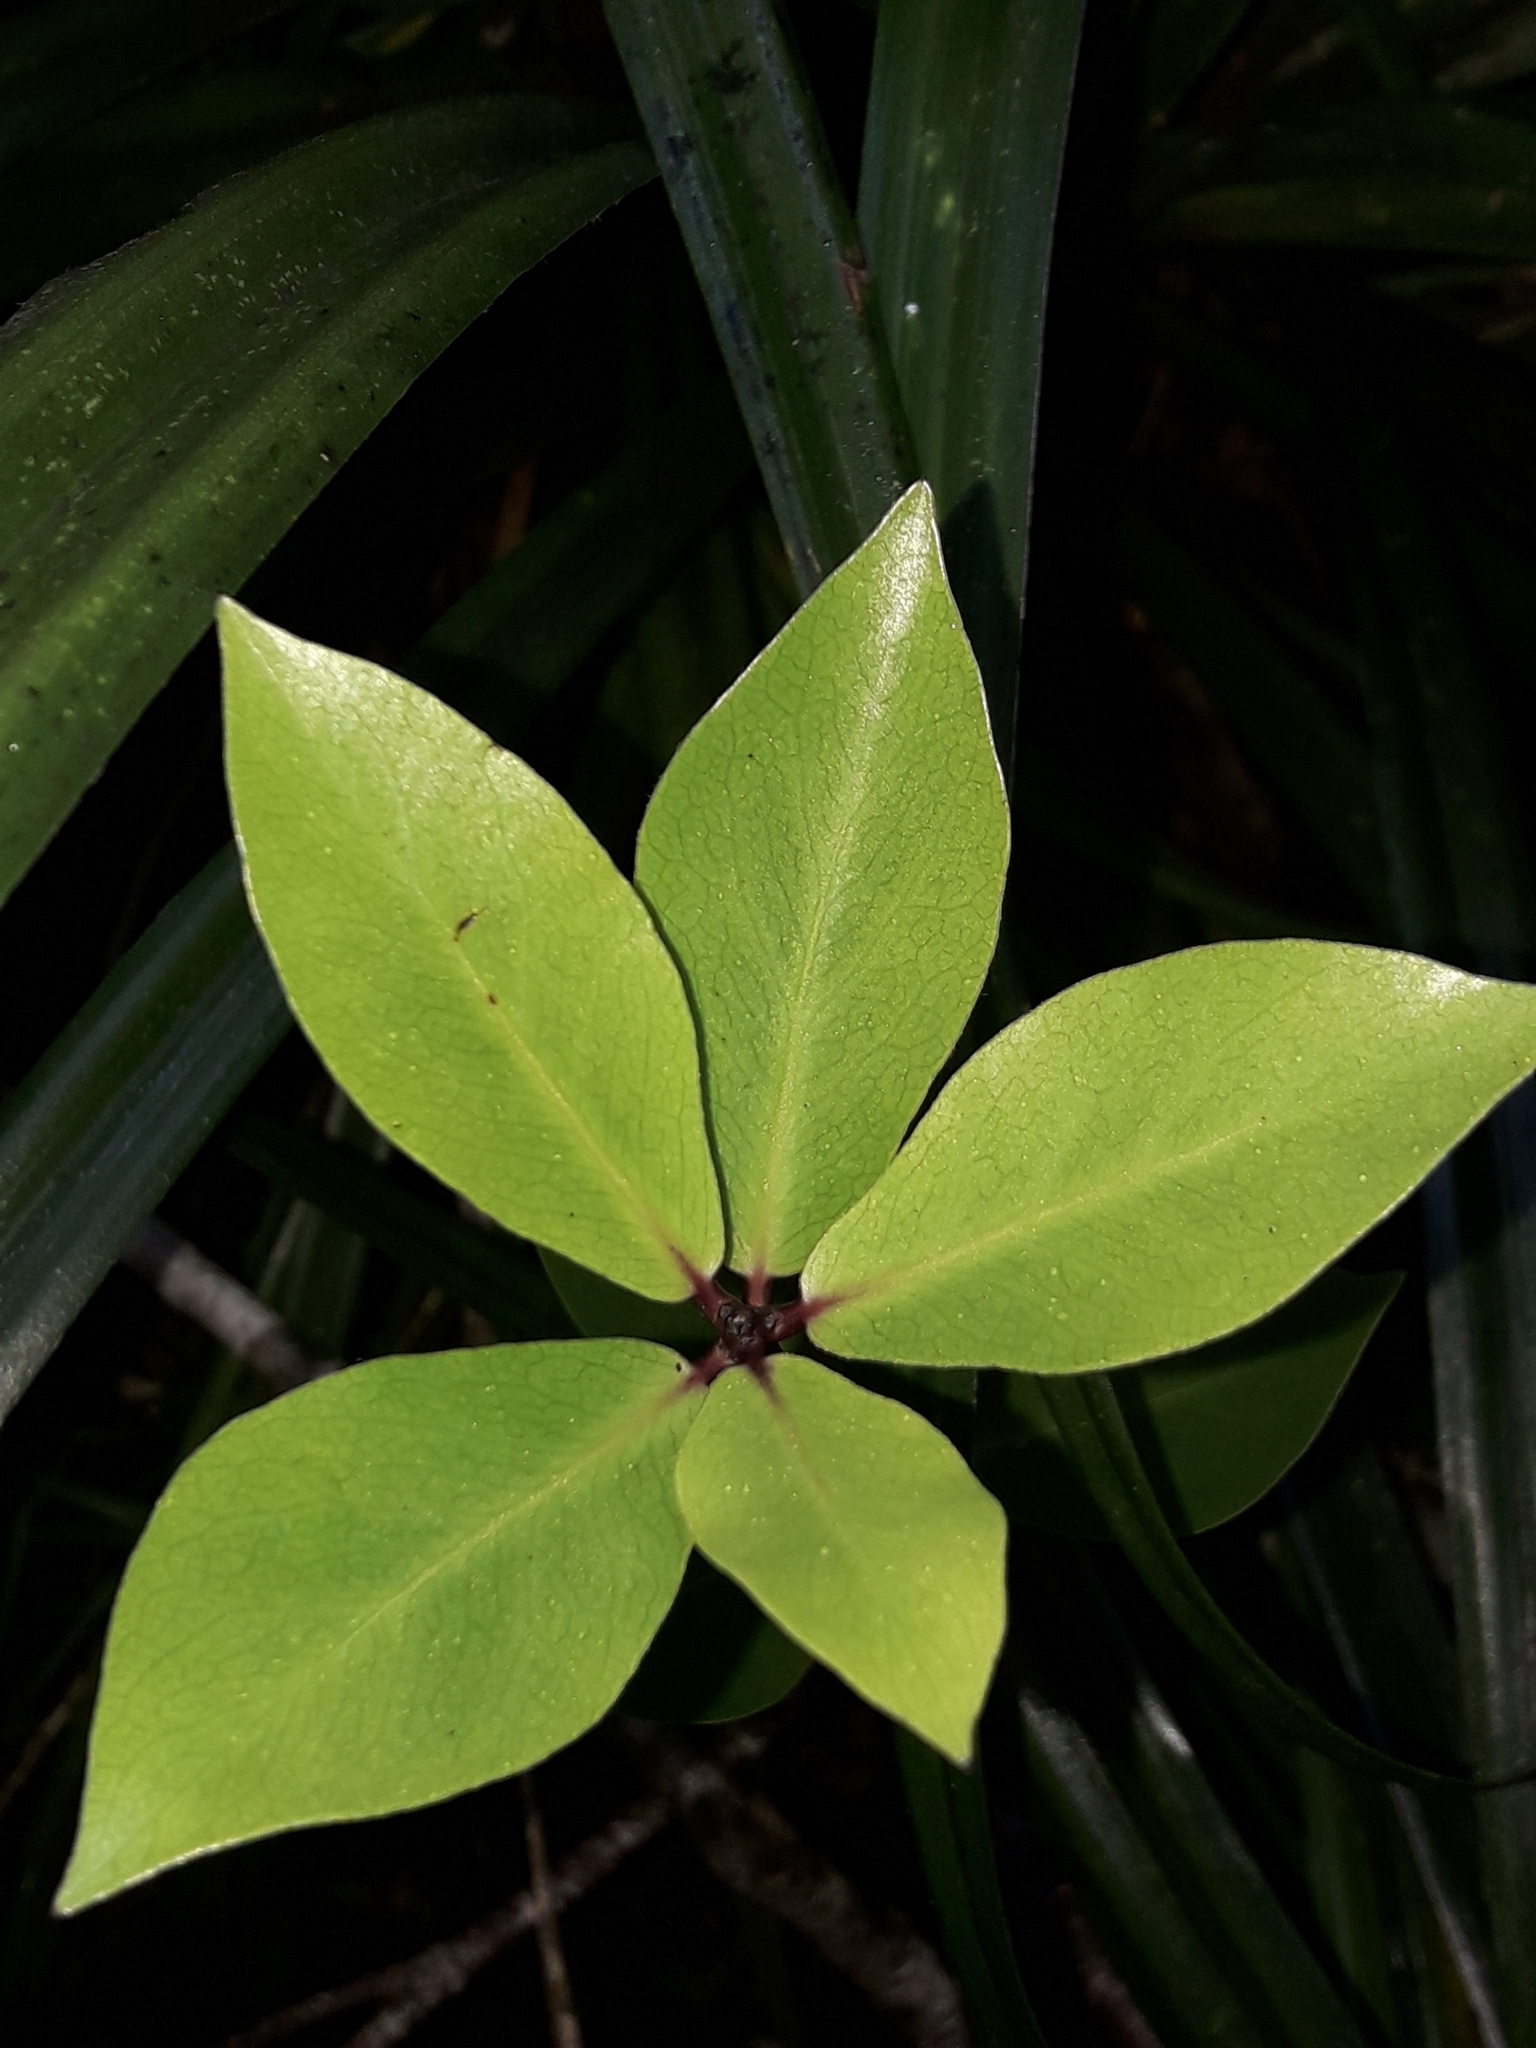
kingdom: Plantae
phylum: Tracheophyta
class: Magnoliopsida
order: Apiales
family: Pittosporaceae
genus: Pittosporum
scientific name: Pittosporum cornifolium
